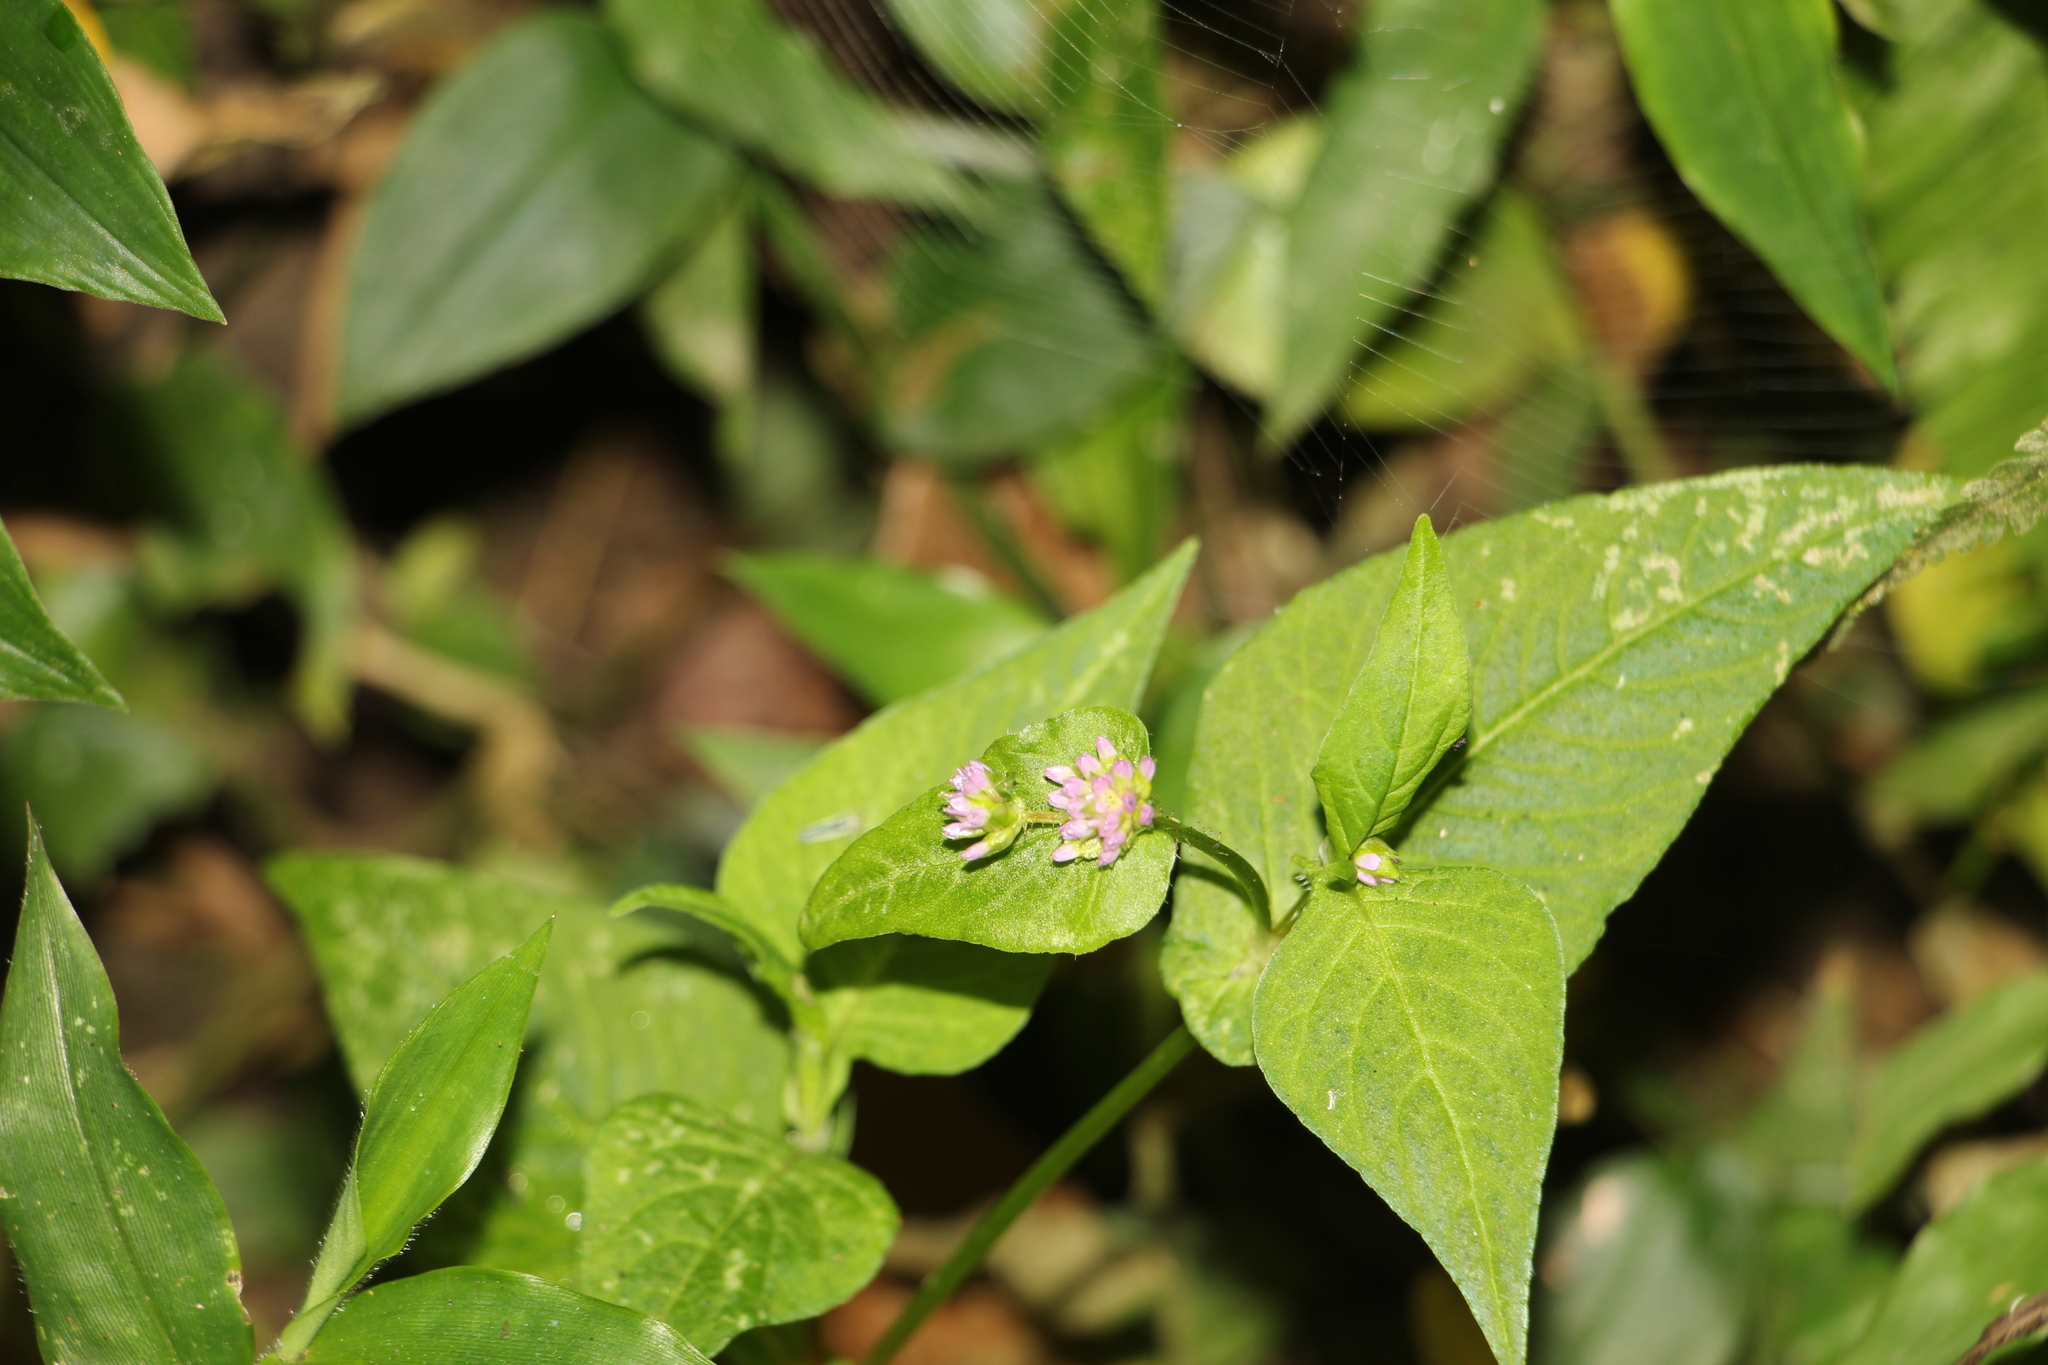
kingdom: Plantae
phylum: Tracheophyta
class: Magnoliopsida
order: Caryophyllales
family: Polygonaceae
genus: Persicaria
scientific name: Persicaria nepalensis
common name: Nepal persicaria
